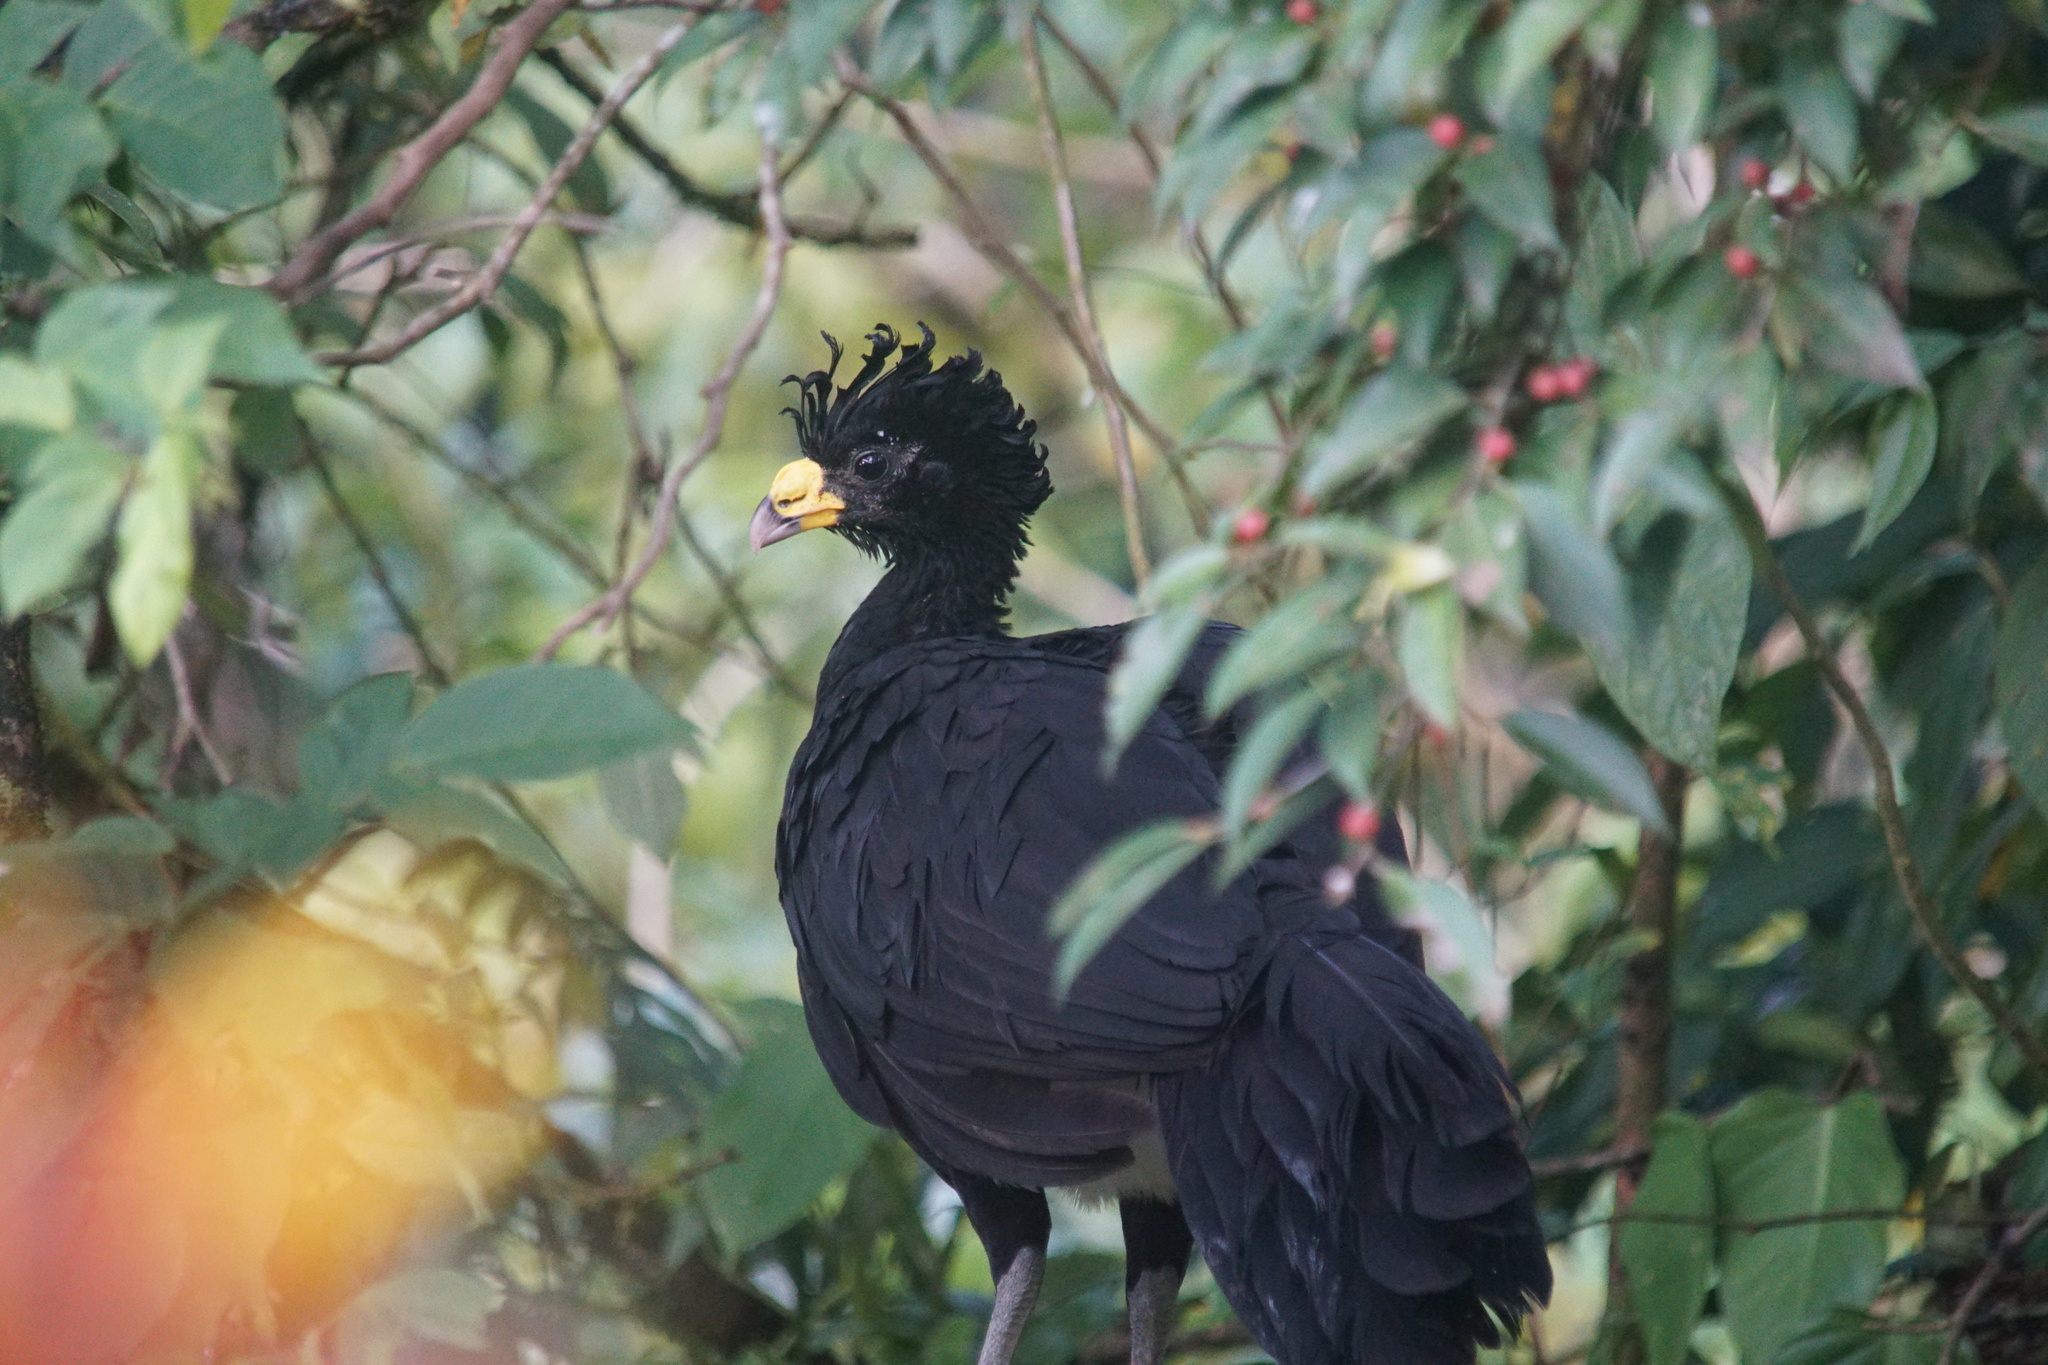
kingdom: Animalia
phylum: Chordata
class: Aves
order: Galliformes
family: Cracidae
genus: Crax
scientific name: Crax rubra
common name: Great curassow
